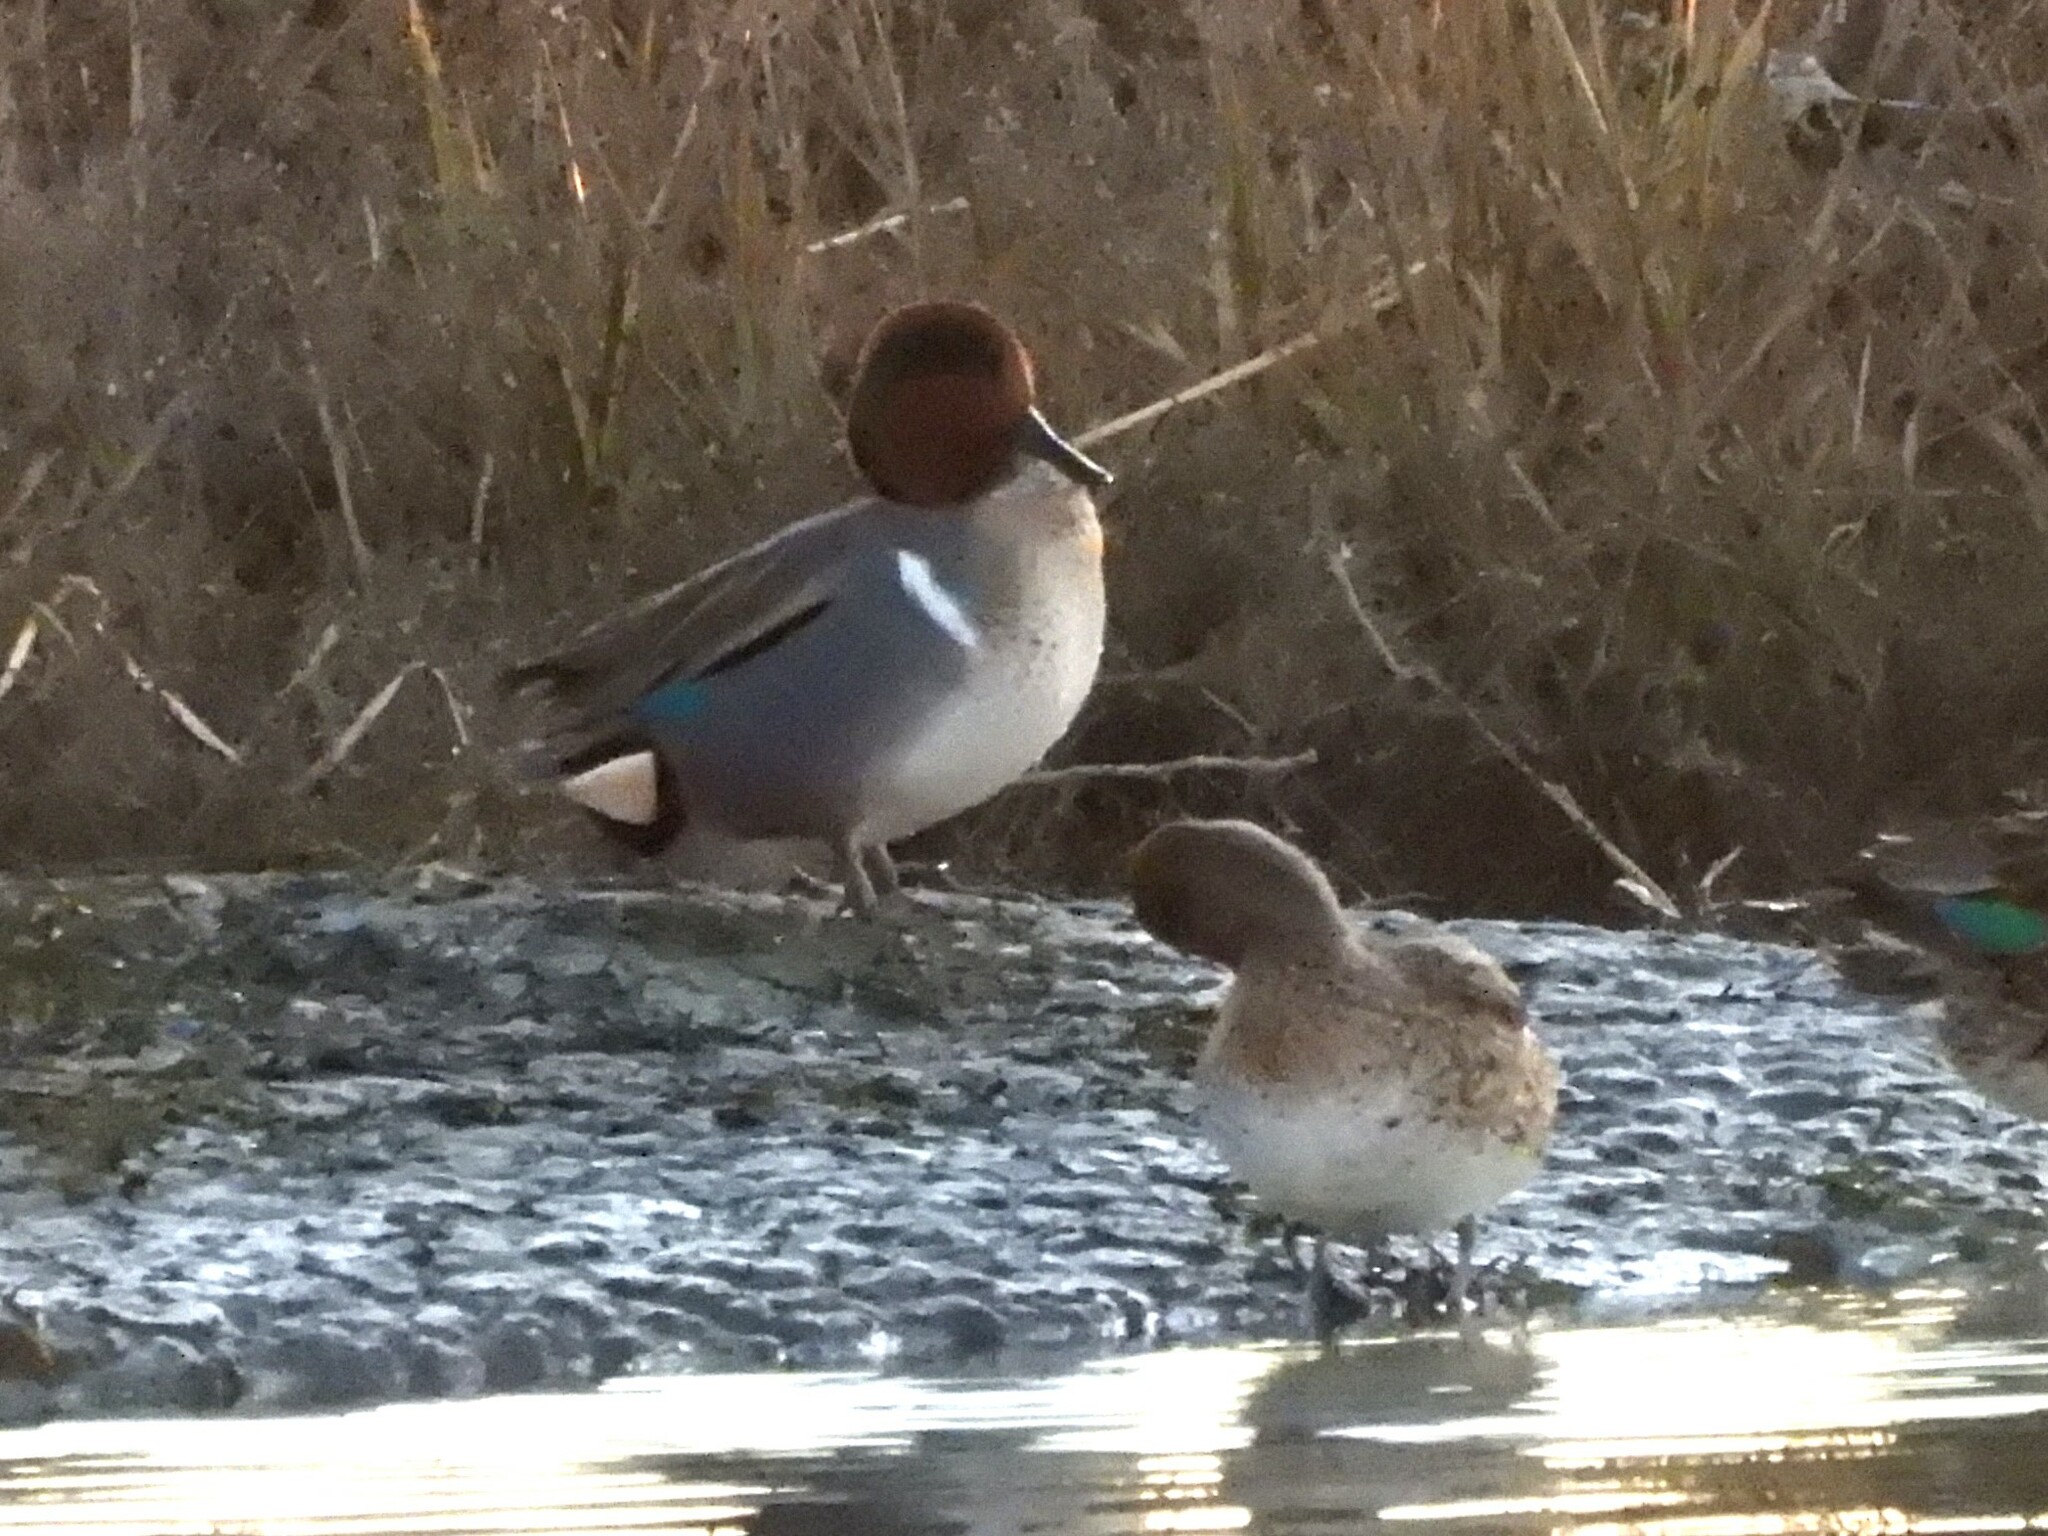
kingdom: Animalia
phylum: Chordata
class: Aves
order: Anseriformes
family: Anatidae
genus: Anas
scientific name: Anas crecca
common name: Eurasian teal
